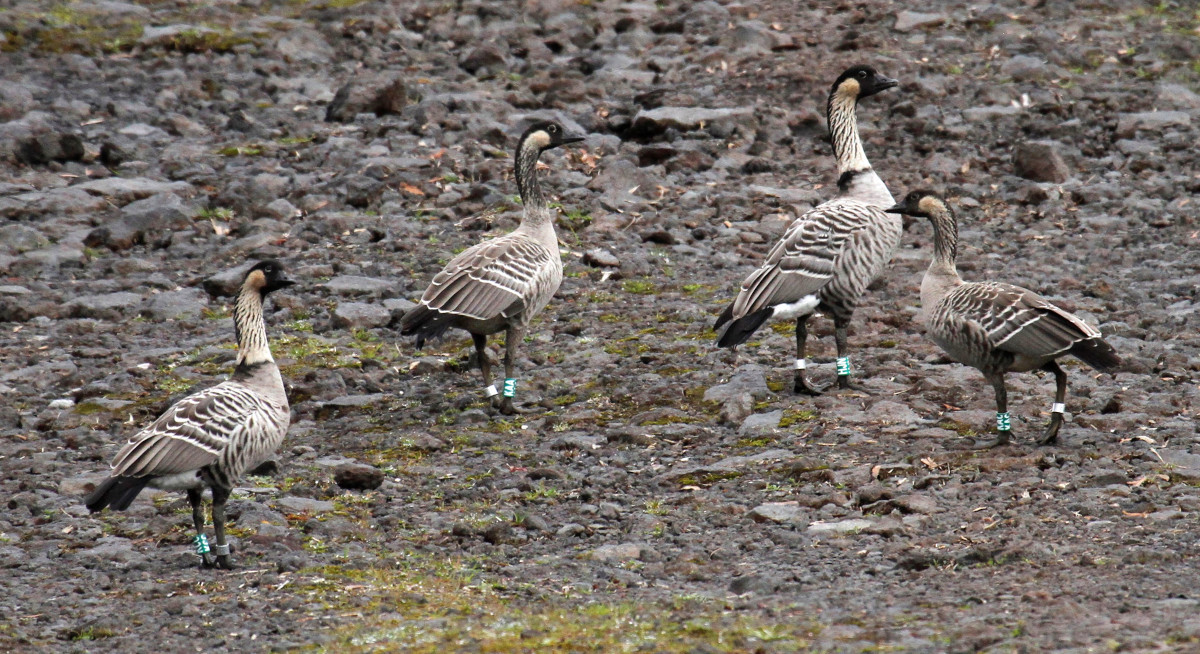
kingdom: Animalia
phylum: Chordata
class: Aves
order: Anseriformes
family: Anatidae
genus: Branta
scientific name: Branta sandvicensis
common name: Nene
